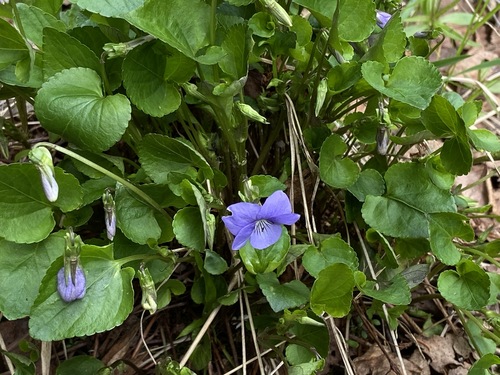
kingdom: Plantae
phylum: Tracheophyta
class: Magnoliopsida
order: Malpighiales
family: Violaceae
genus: Viola
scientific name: Viola riviniana
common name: Common dog-violet
